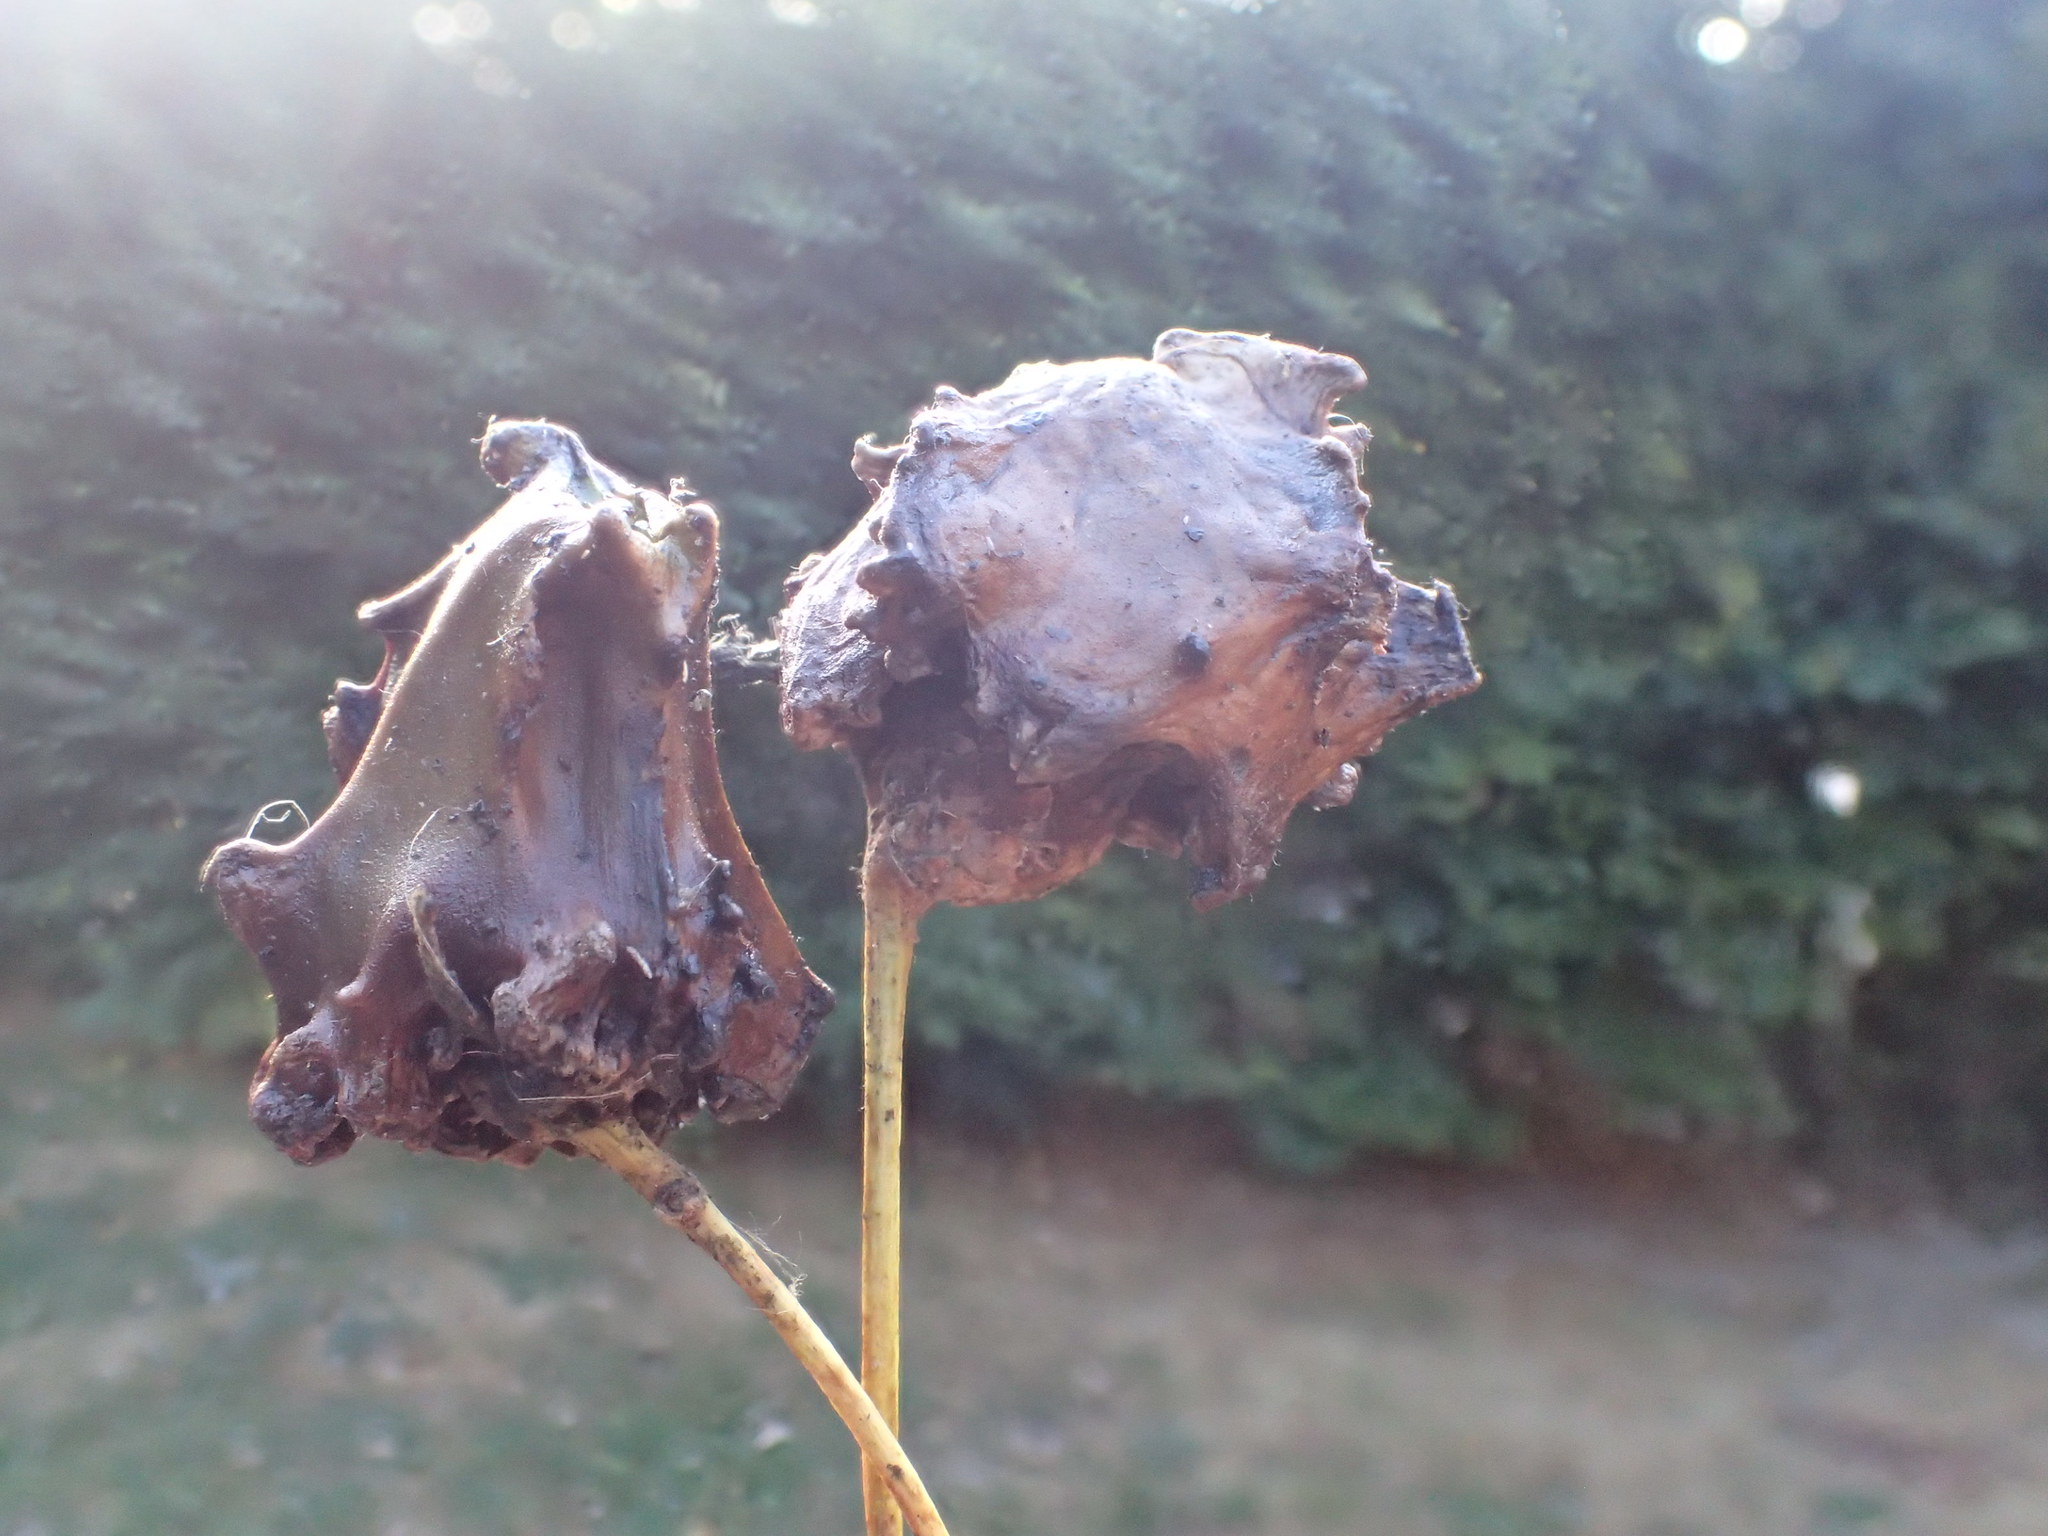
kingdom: Animalia
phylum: Arthropoda
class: Insecta
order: Hymenoptera
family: Cynipidae
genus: Andricus
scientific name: Andricus quercuscalicis
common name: Knopper gall
